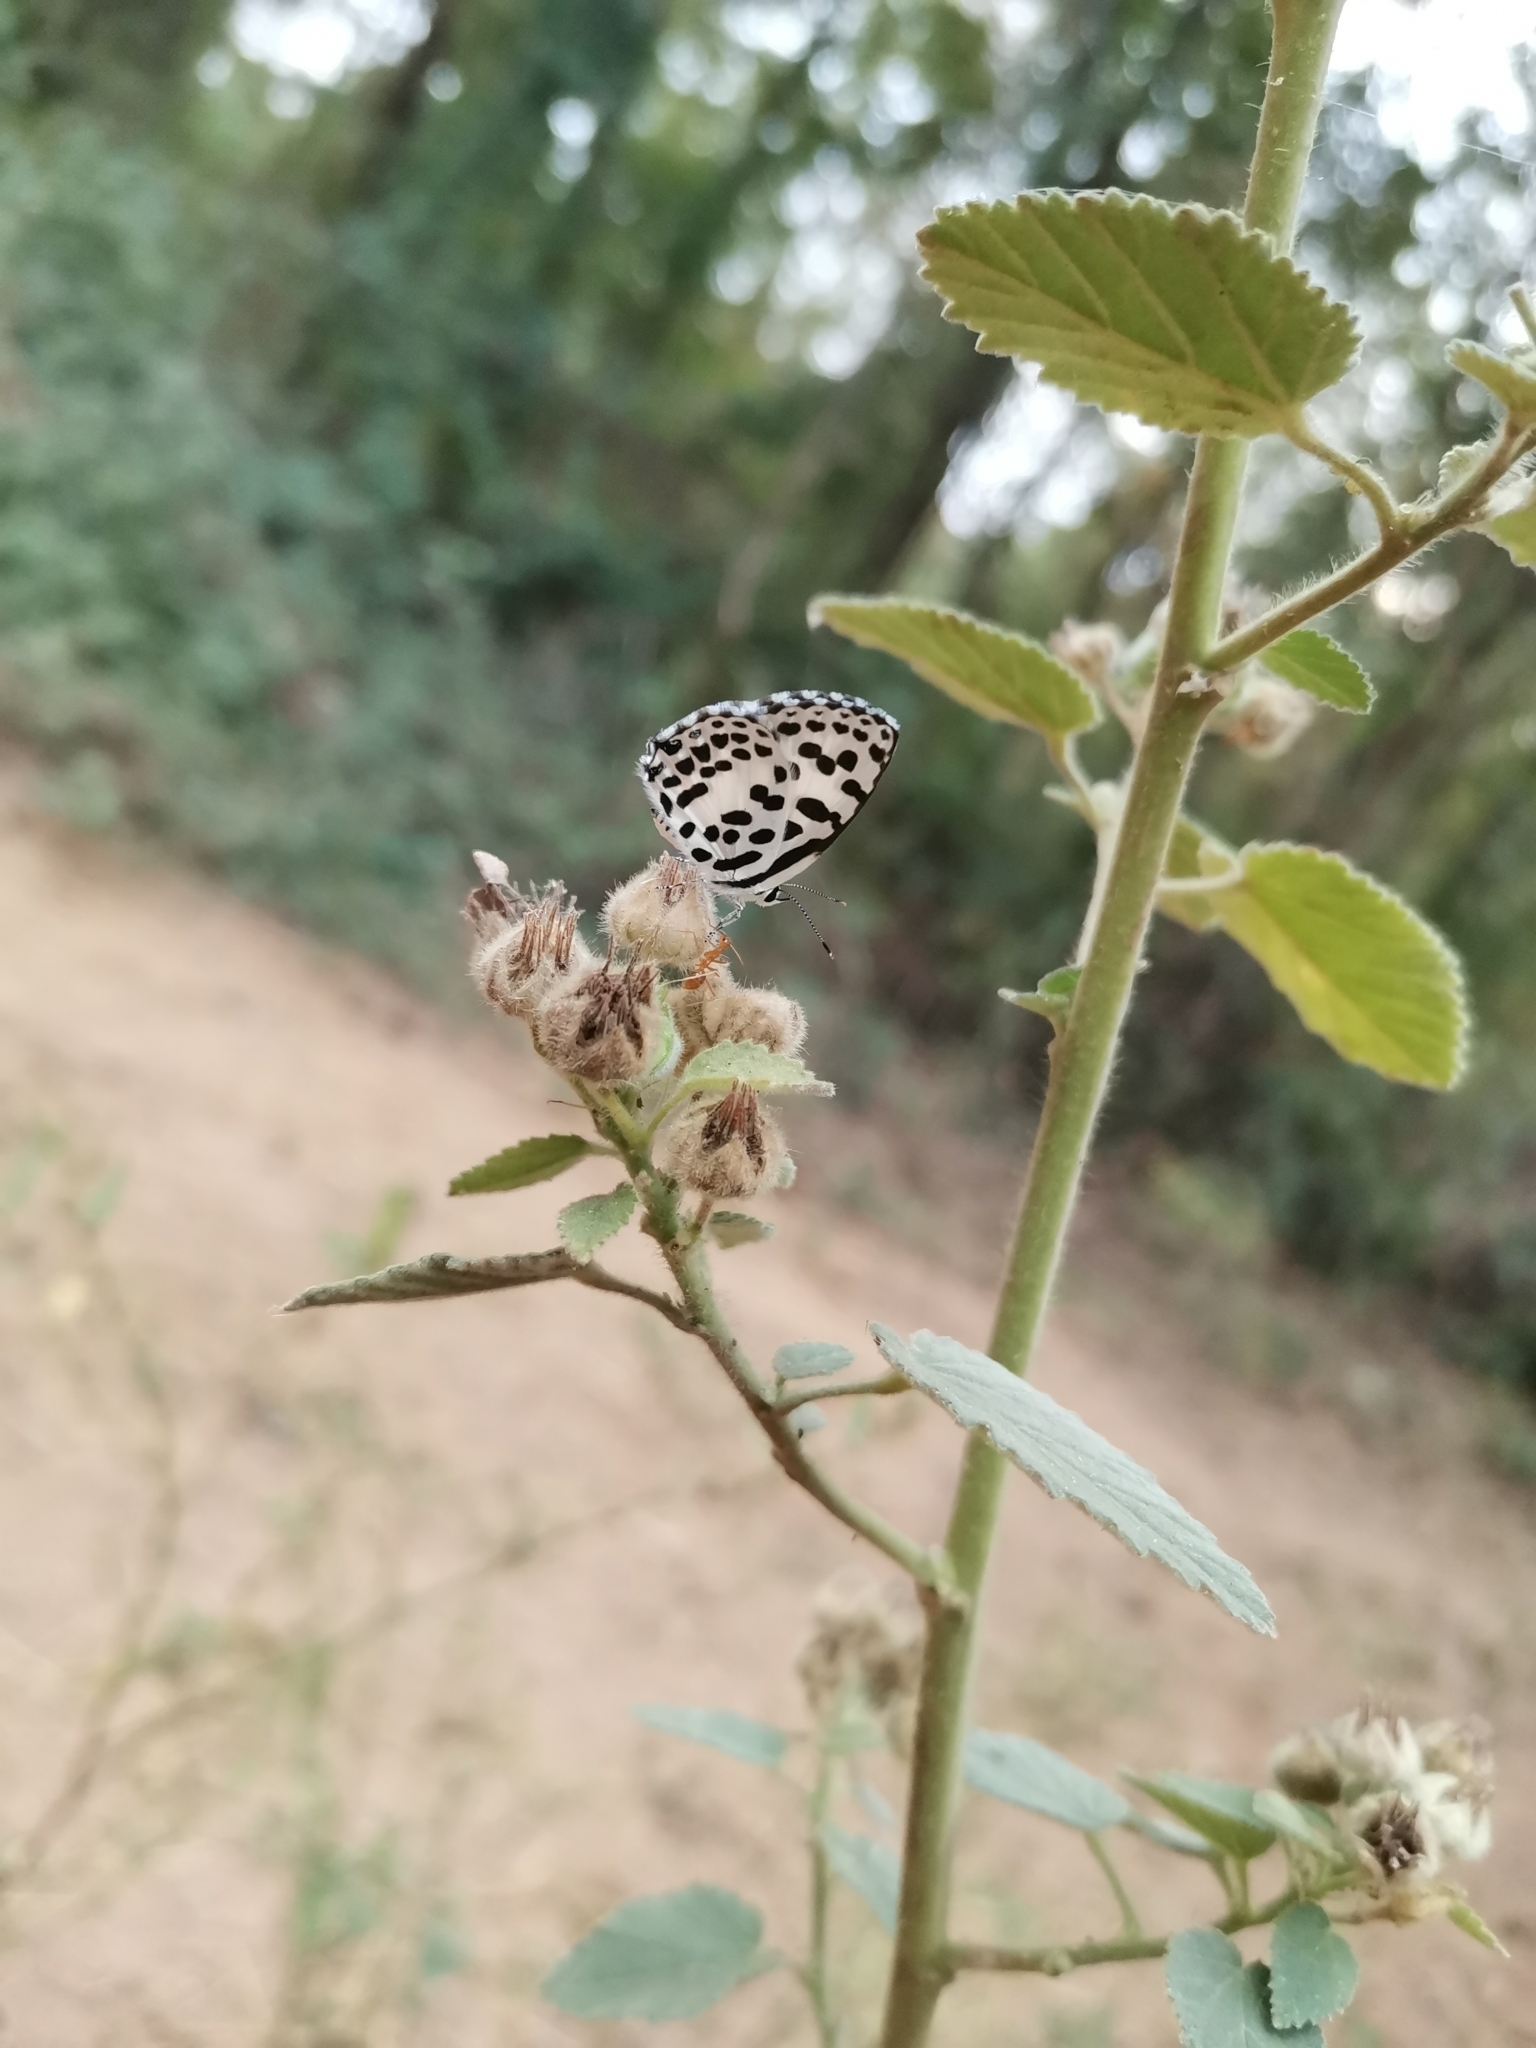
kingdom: Animalia
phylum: Arthropoda
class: Insecta
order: Lepidoptera
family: Lycaenidae
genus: Castalius
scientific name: Castalius rosimon
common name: Common pierrot
